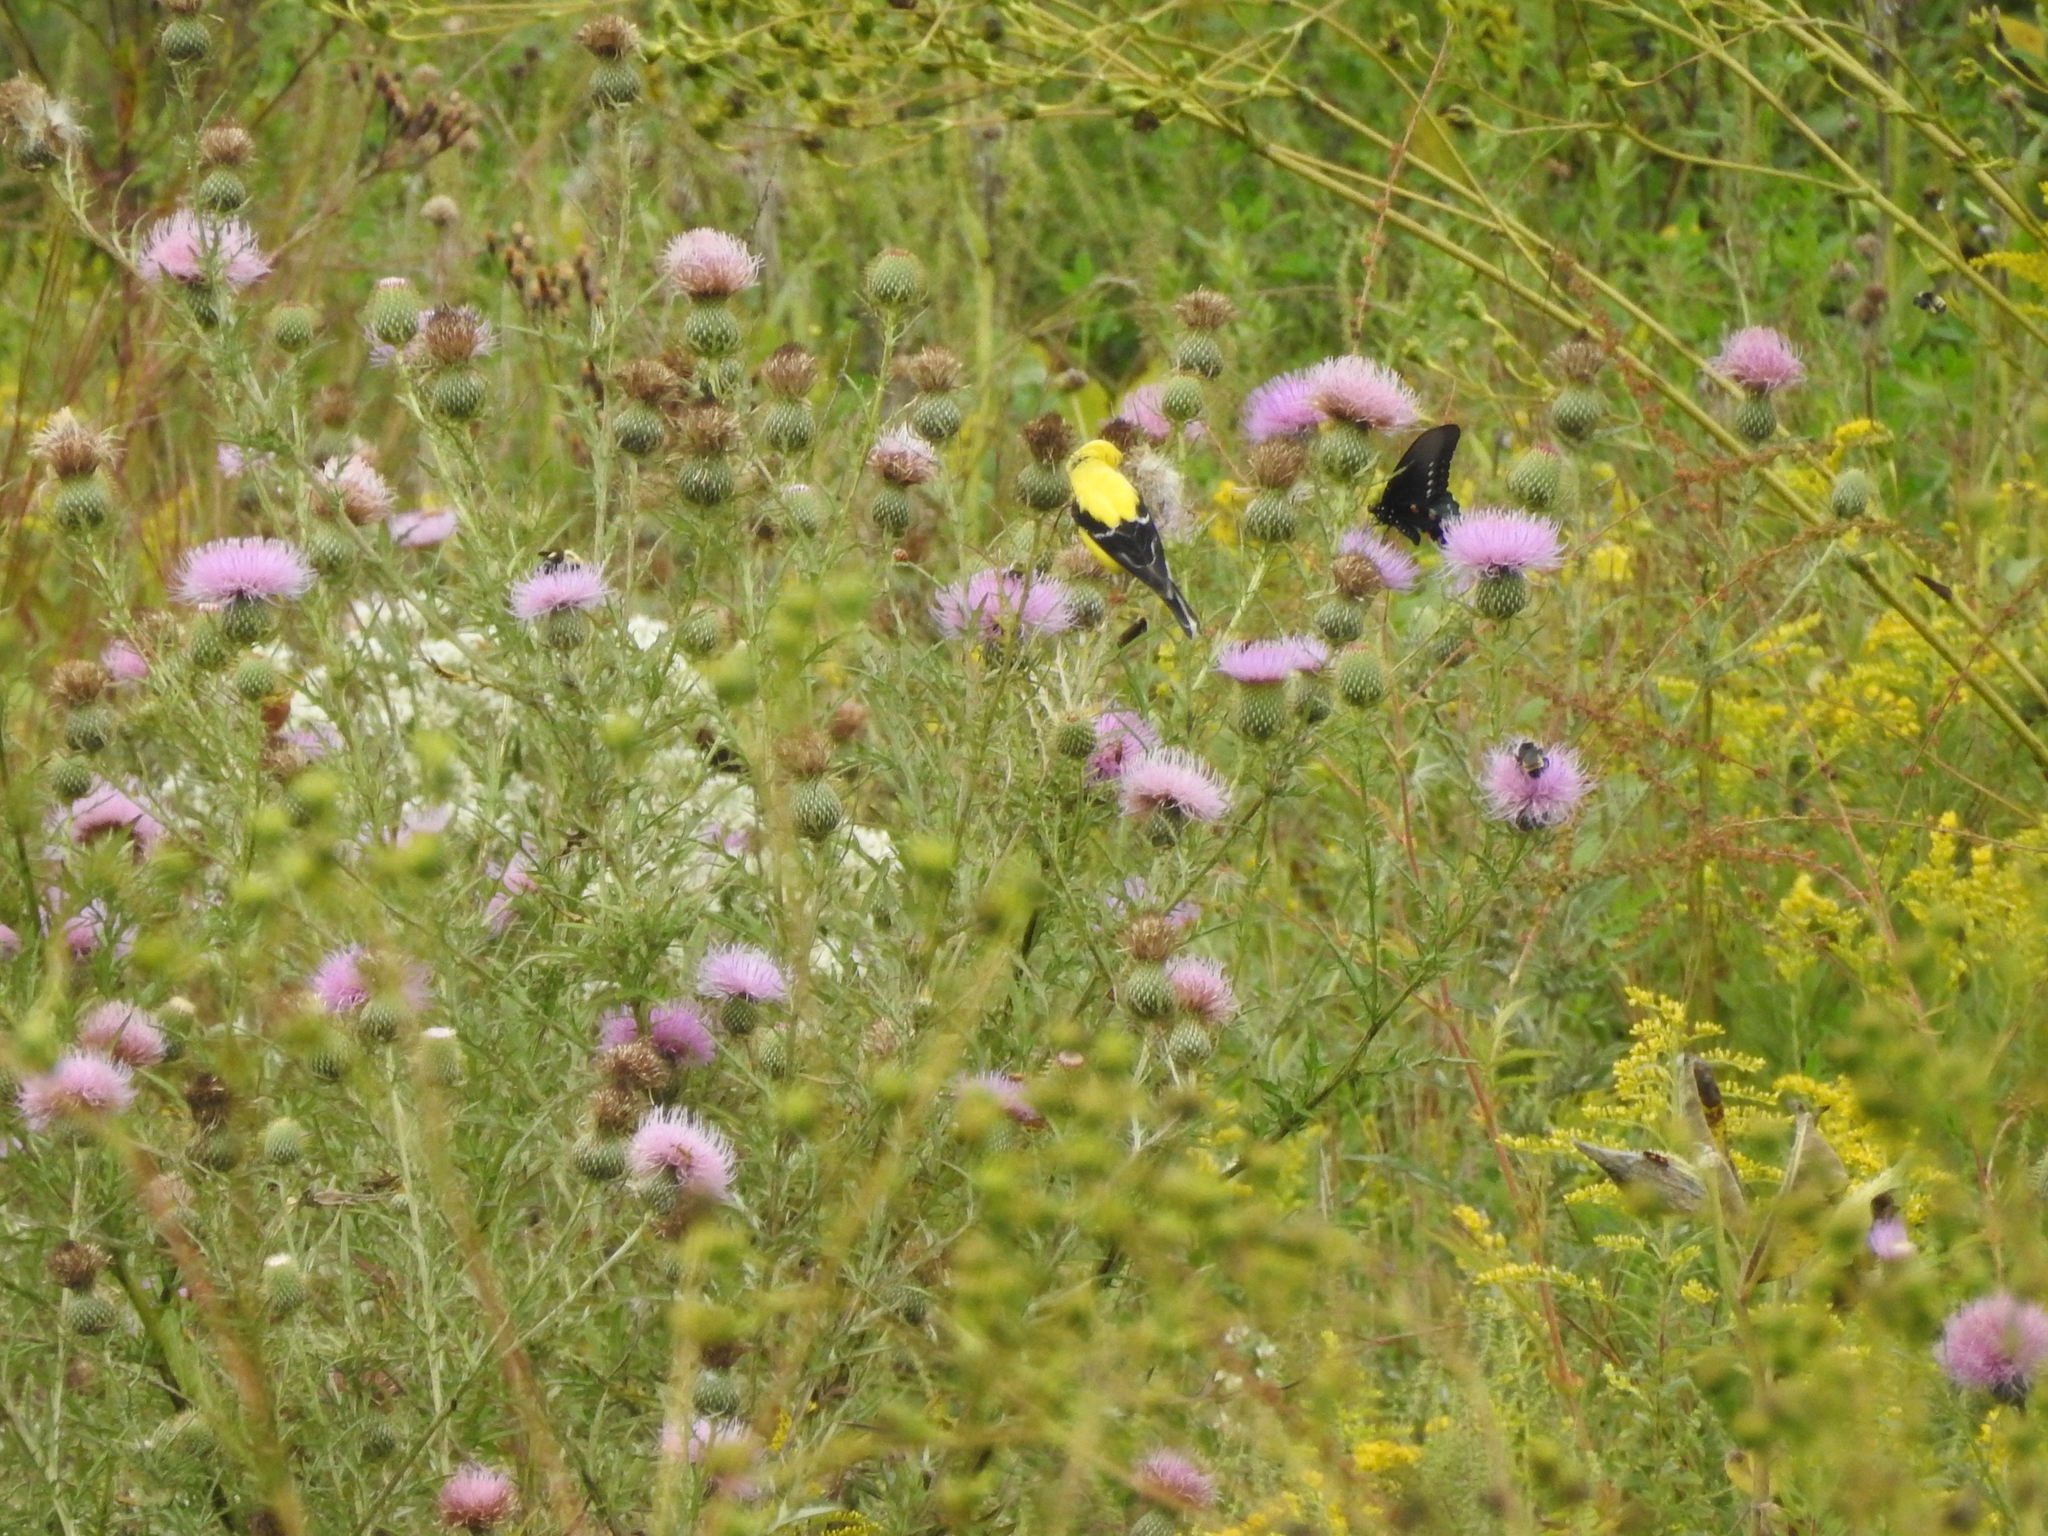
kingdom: Animalia
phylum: Arthropoda
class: Insecta
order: Lepidoptera
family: Papilionidae
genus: Battus
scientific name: Battus philenor
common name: Pipevine swallowtail
